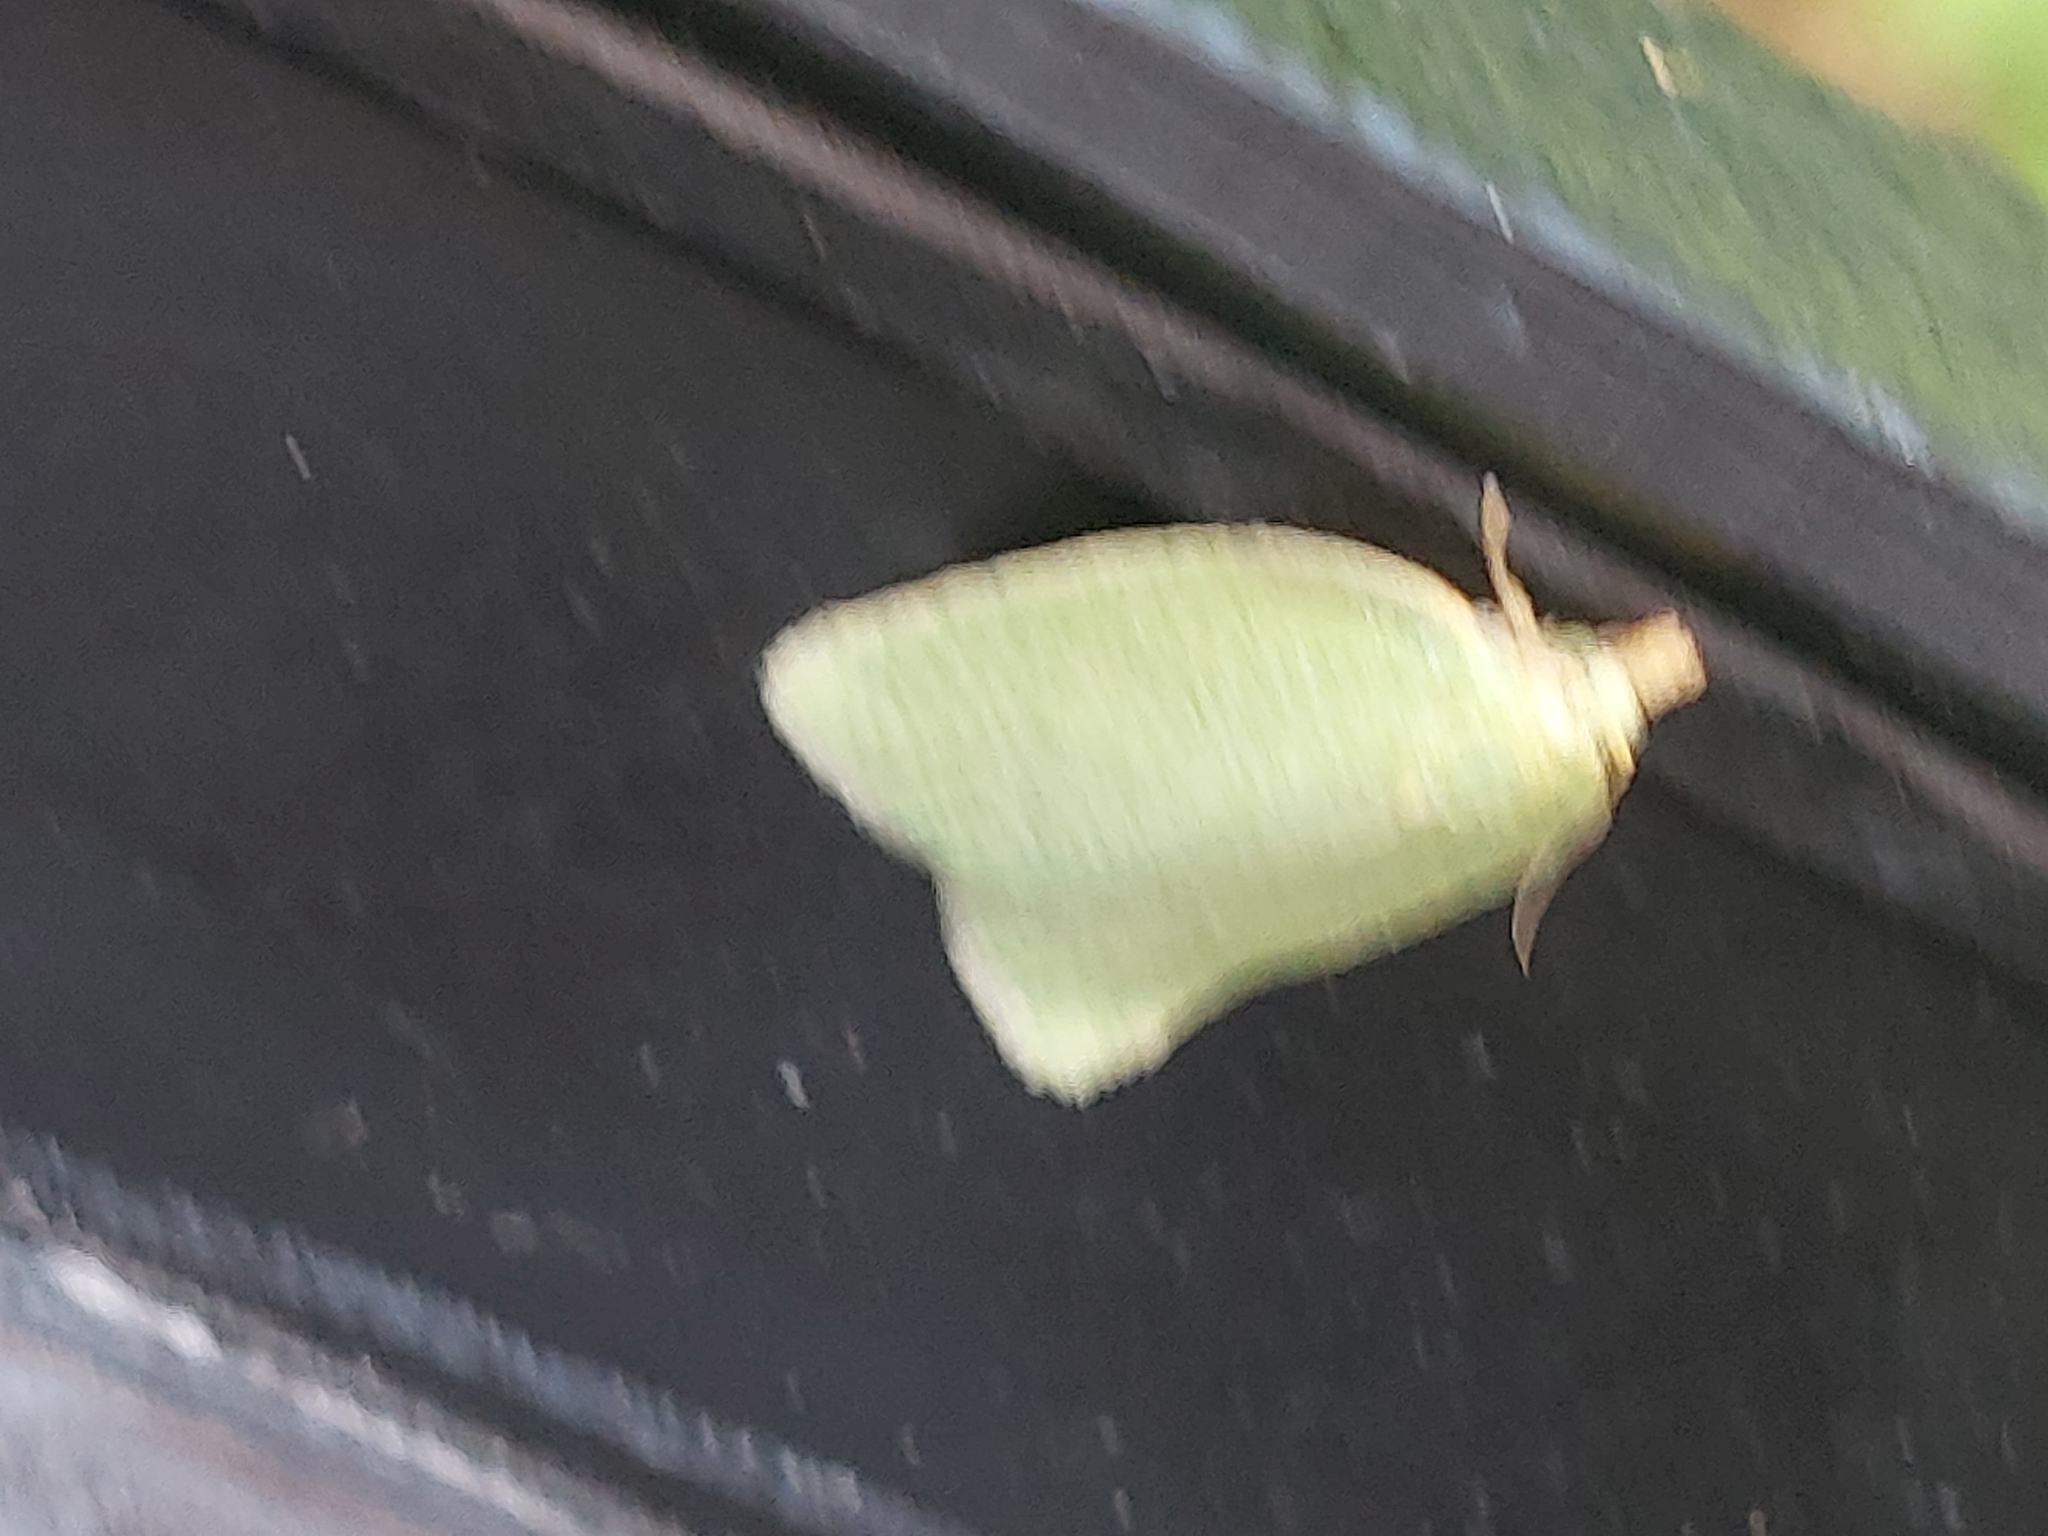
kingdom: Animalia
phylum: Arthropoda
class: Insecta
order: Lepidoptera
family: Tortricidae
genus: Tortrix
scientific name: Tortrix viridana
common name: Green oak tortrix
